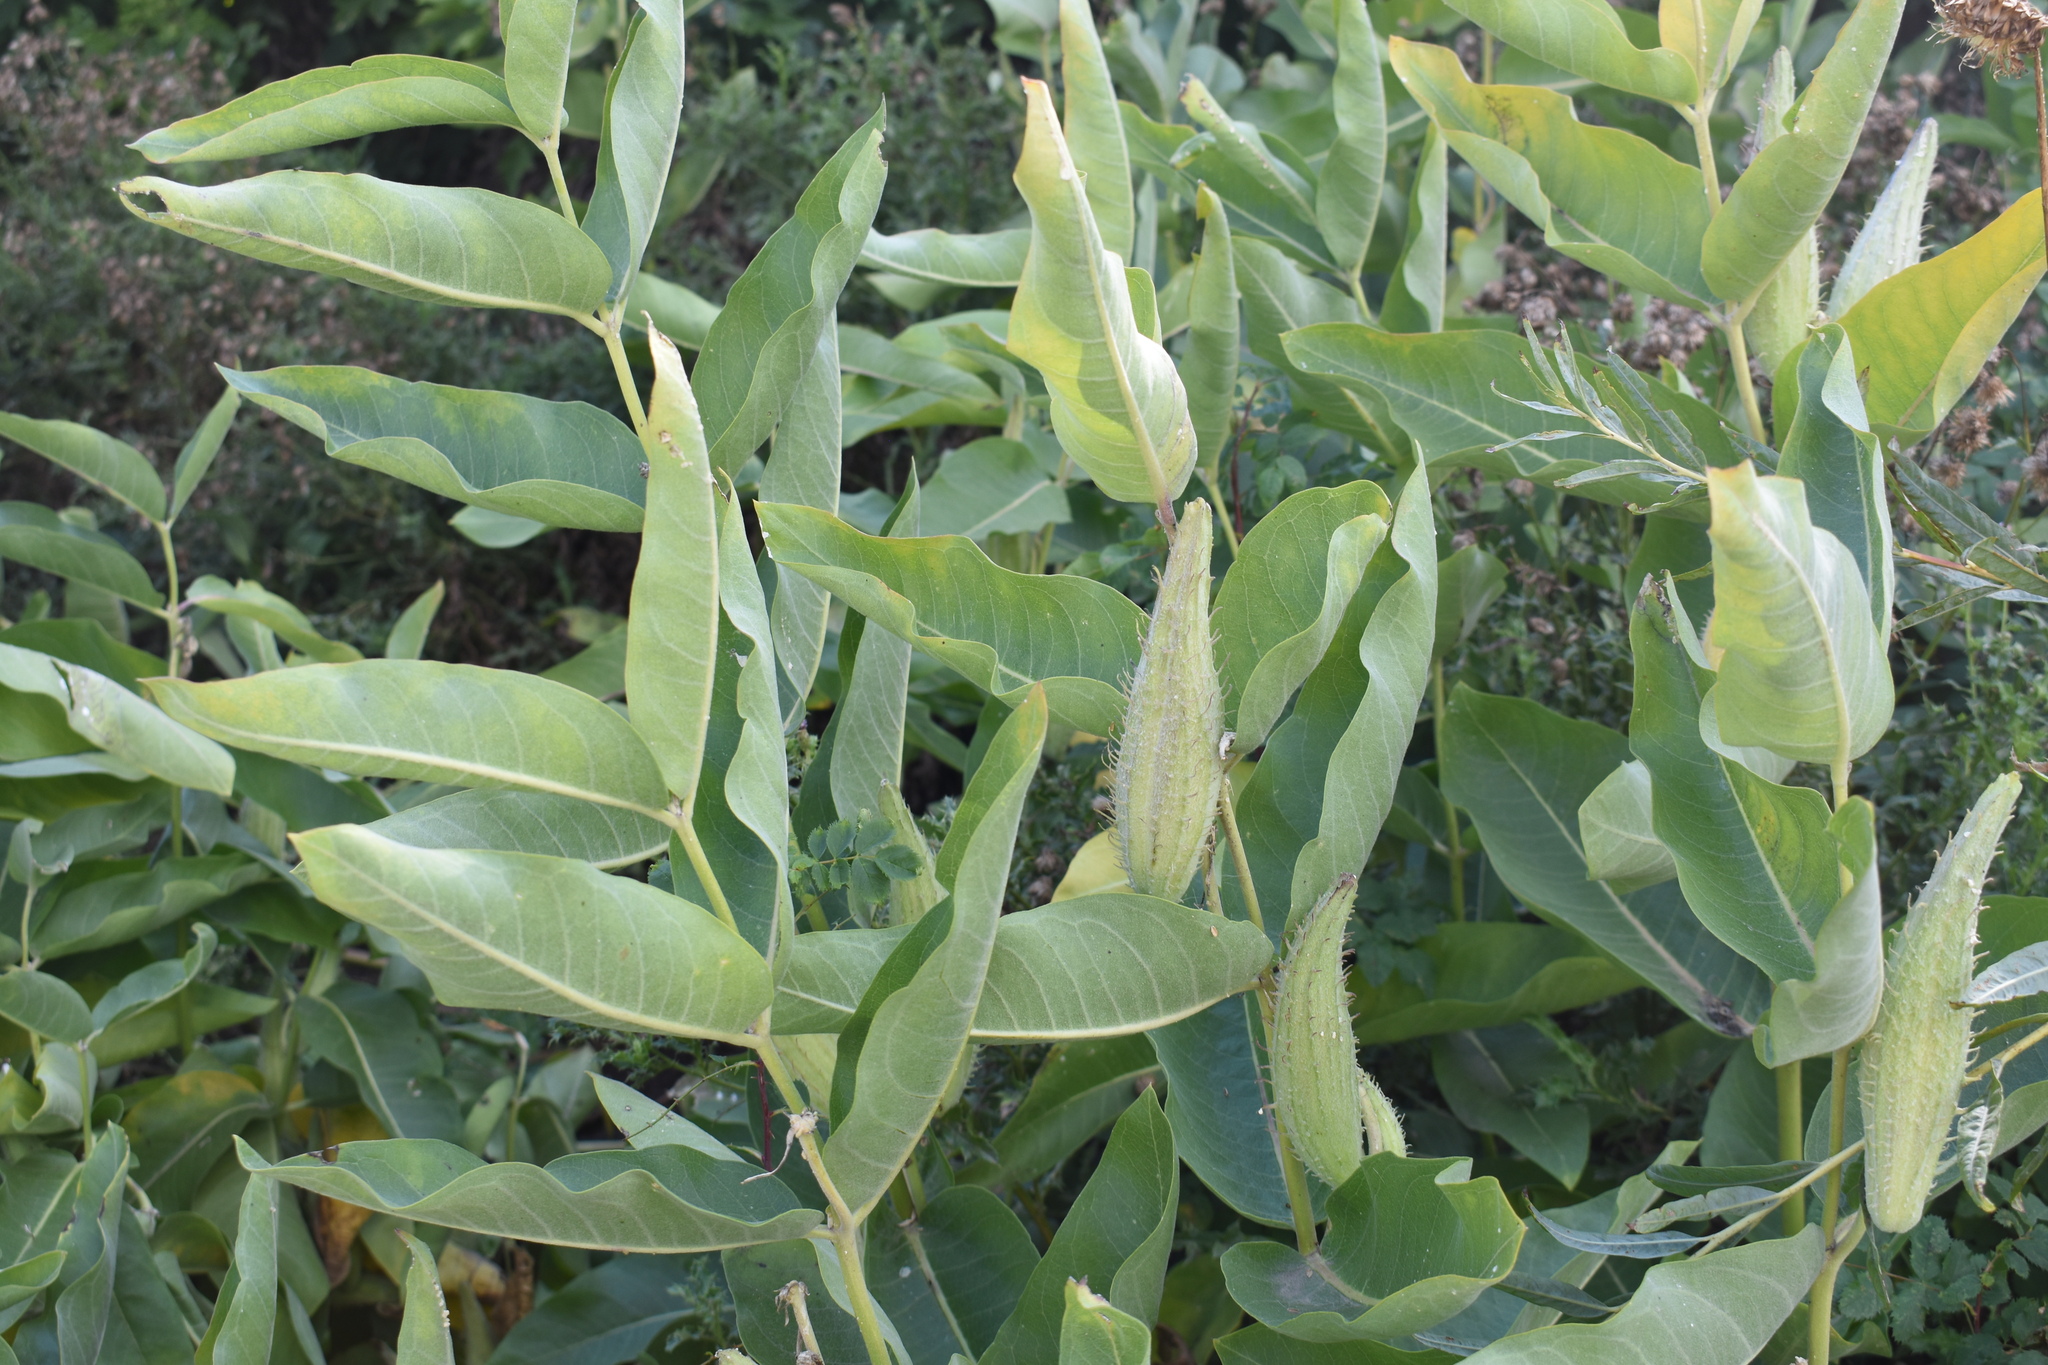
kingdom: Plantae
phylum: Tracheophyta
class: Magnoliopsida
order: Gentianales
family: Apocynaceae
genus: Asclepias
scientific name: Asclepias speciosa
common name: Showy milkweed
